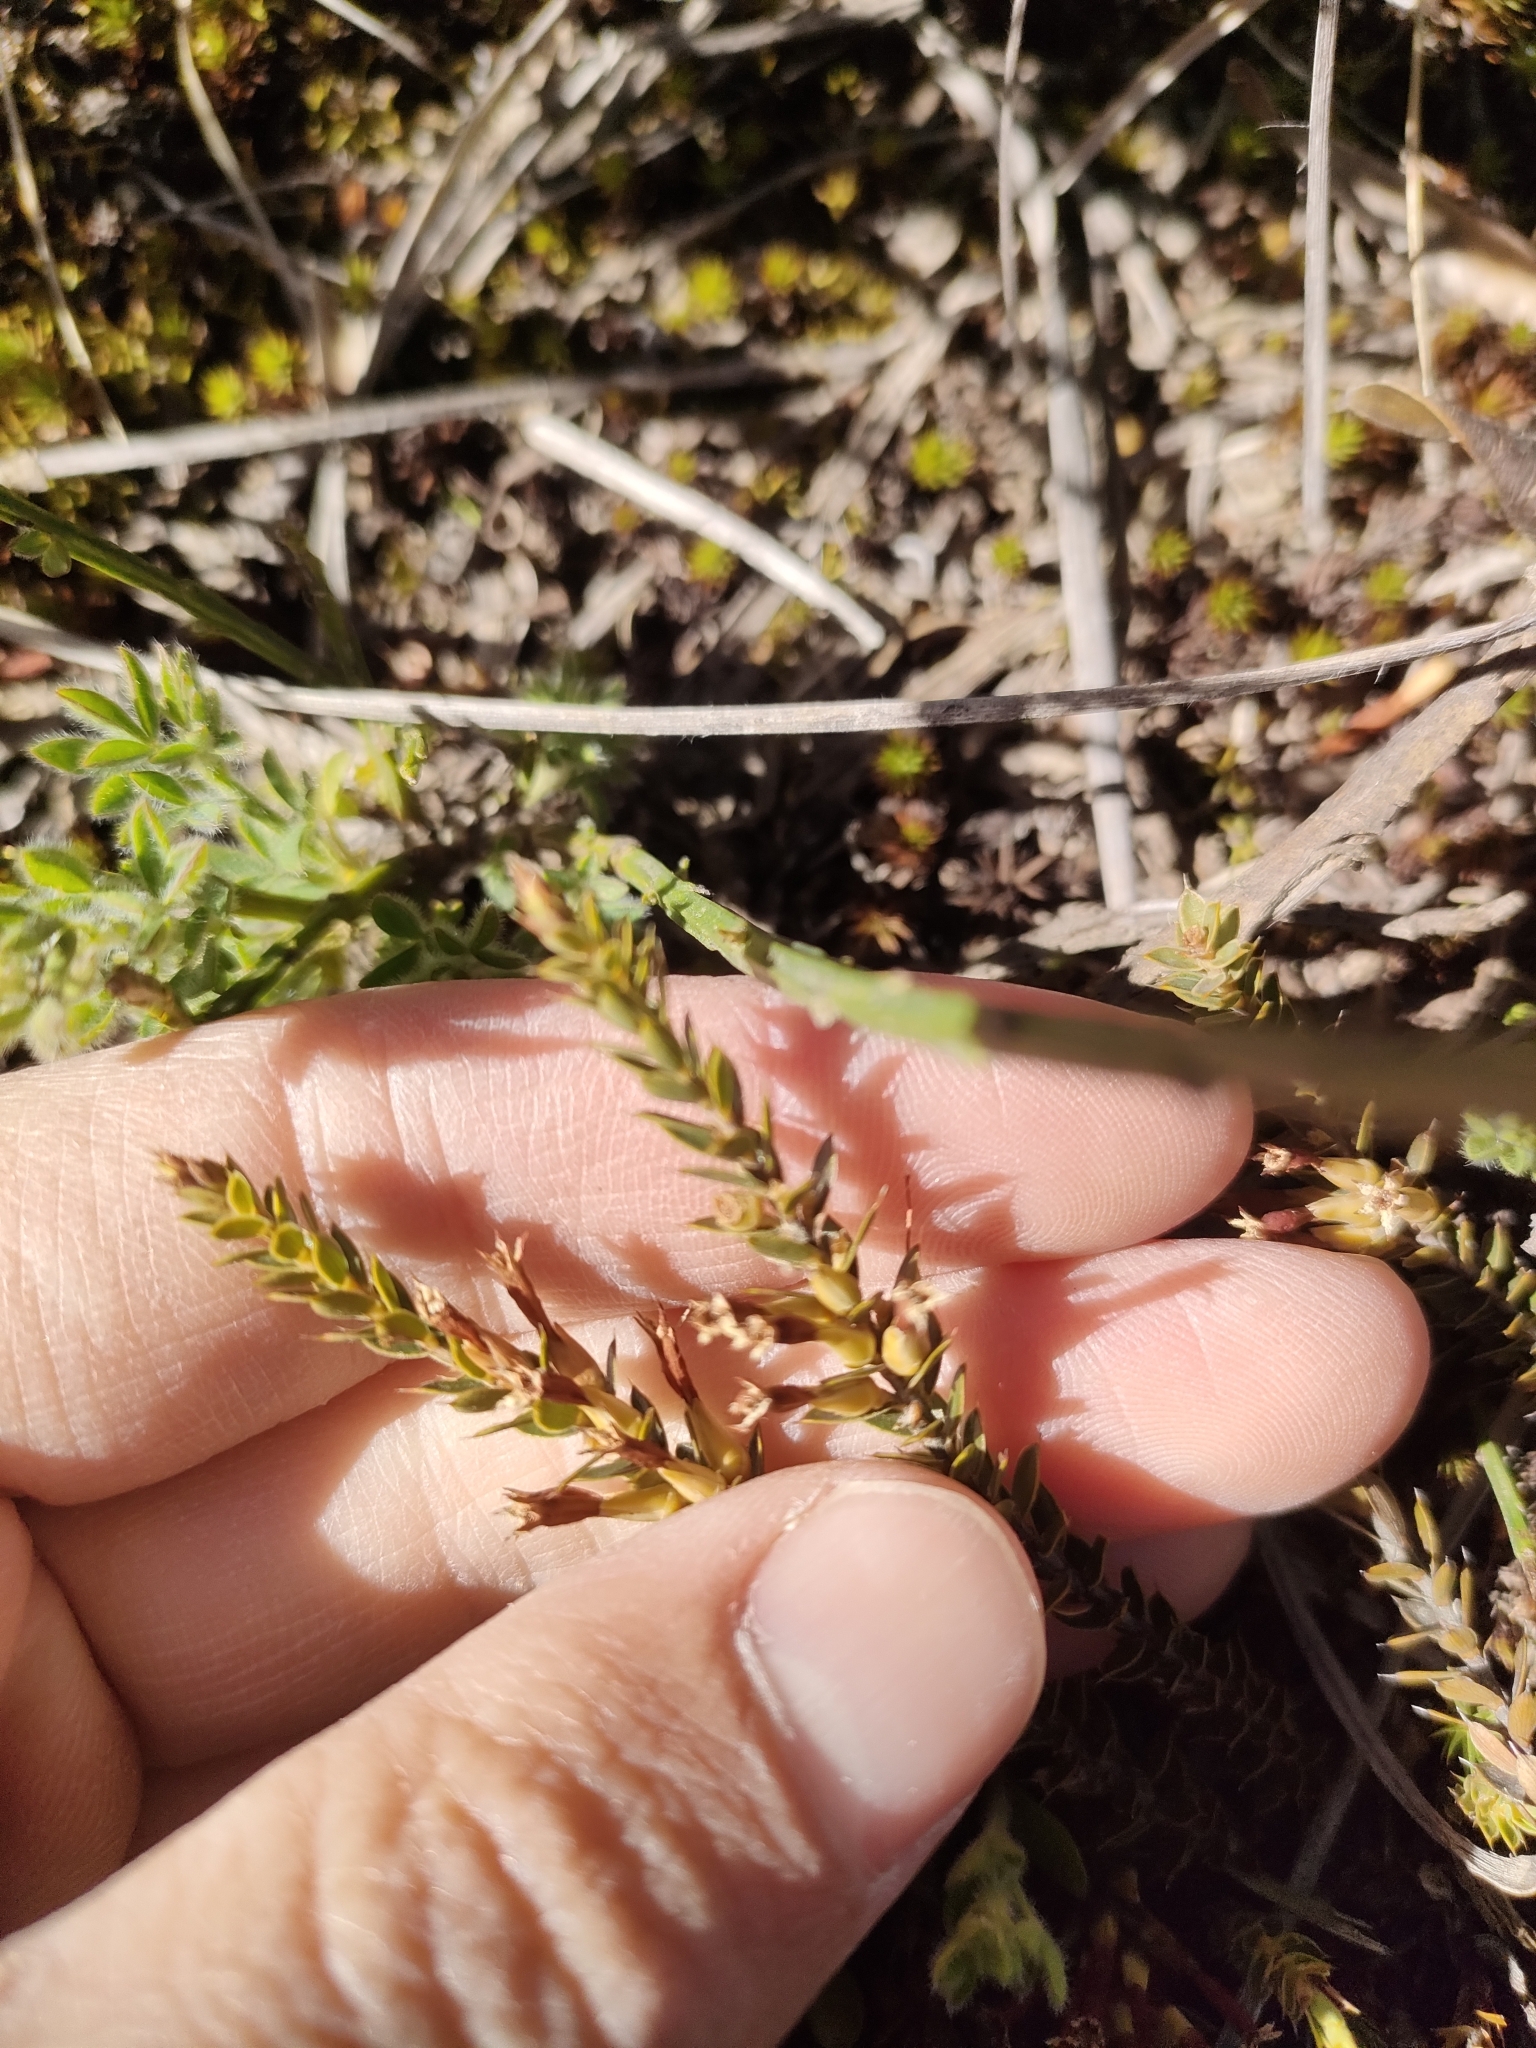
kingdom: Plantae
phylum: Tracheophyta
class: Magnoliopsida
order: Ericales
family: Ericaceae
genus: Styphelia
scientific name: Styphelia nesophila
